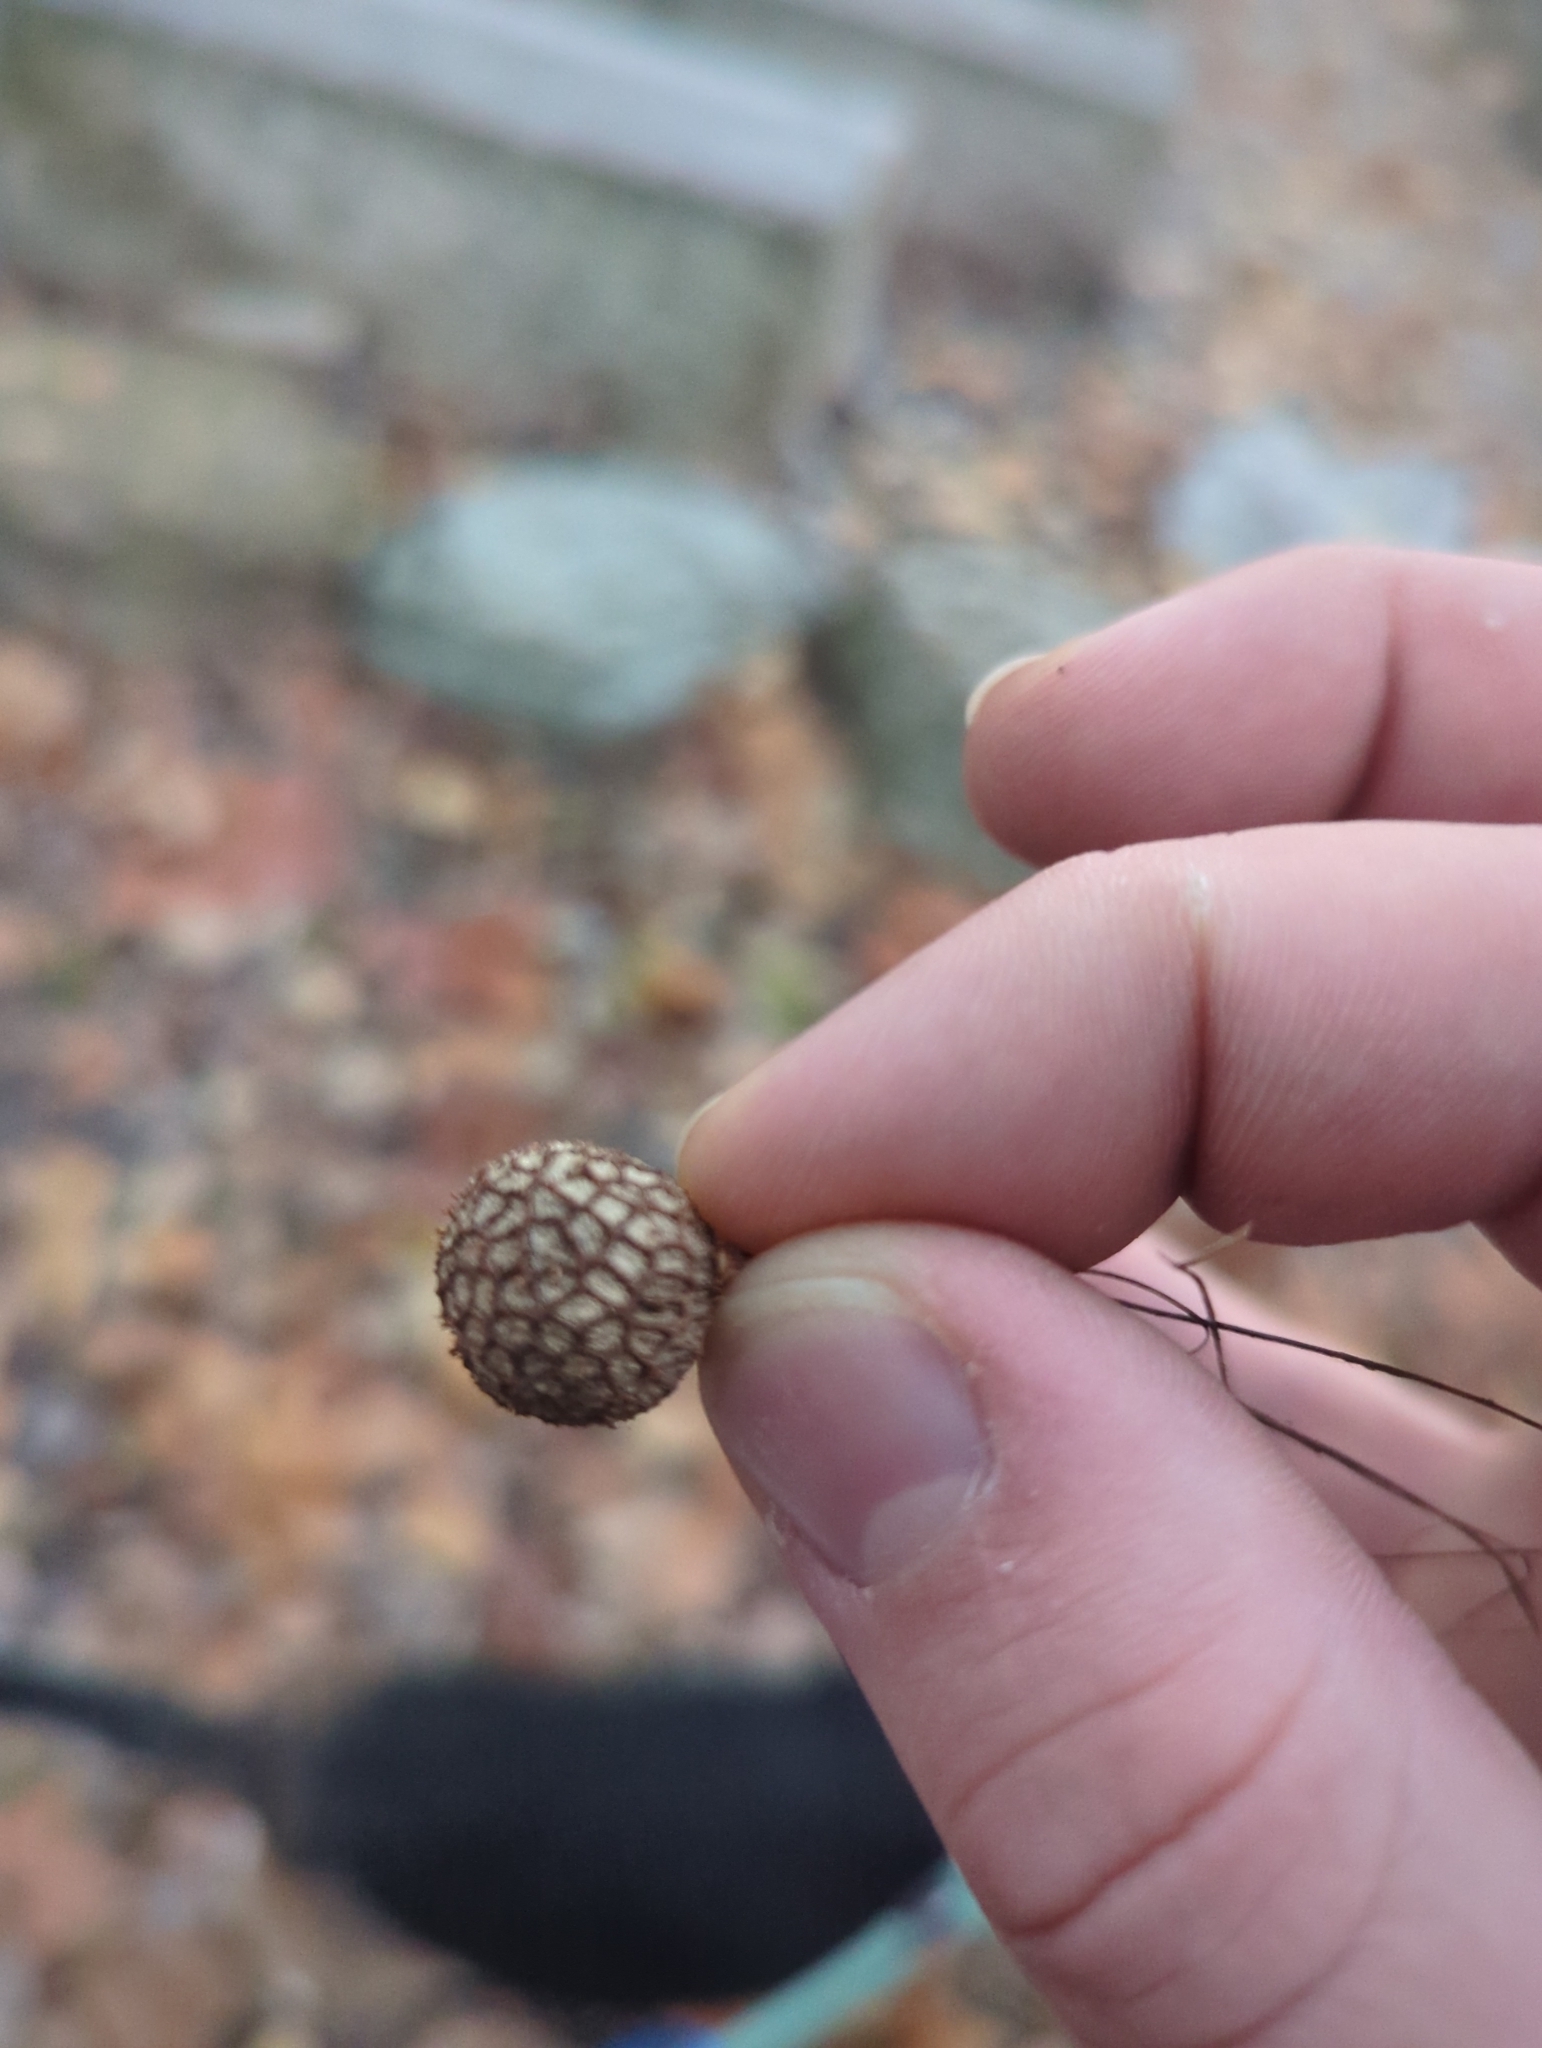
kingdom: Plantae
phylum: Tracheophyta
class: Magnoliopsida
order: Proteales
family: Platanaceae
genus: Platanus
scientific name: Platanus occidentalis
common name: American sycamore
